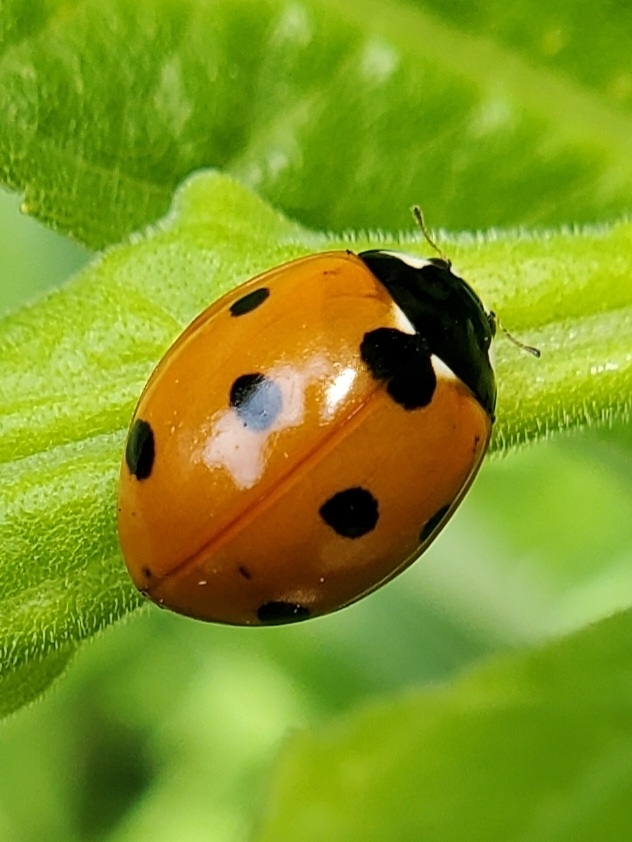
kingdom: Animalia
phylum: Arthropoda
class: Insecta
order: Coleoptera
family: Coccinellidae
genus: Coccinella
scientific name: Coccinella septempunctata
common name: Sevenspotted lady beetle
